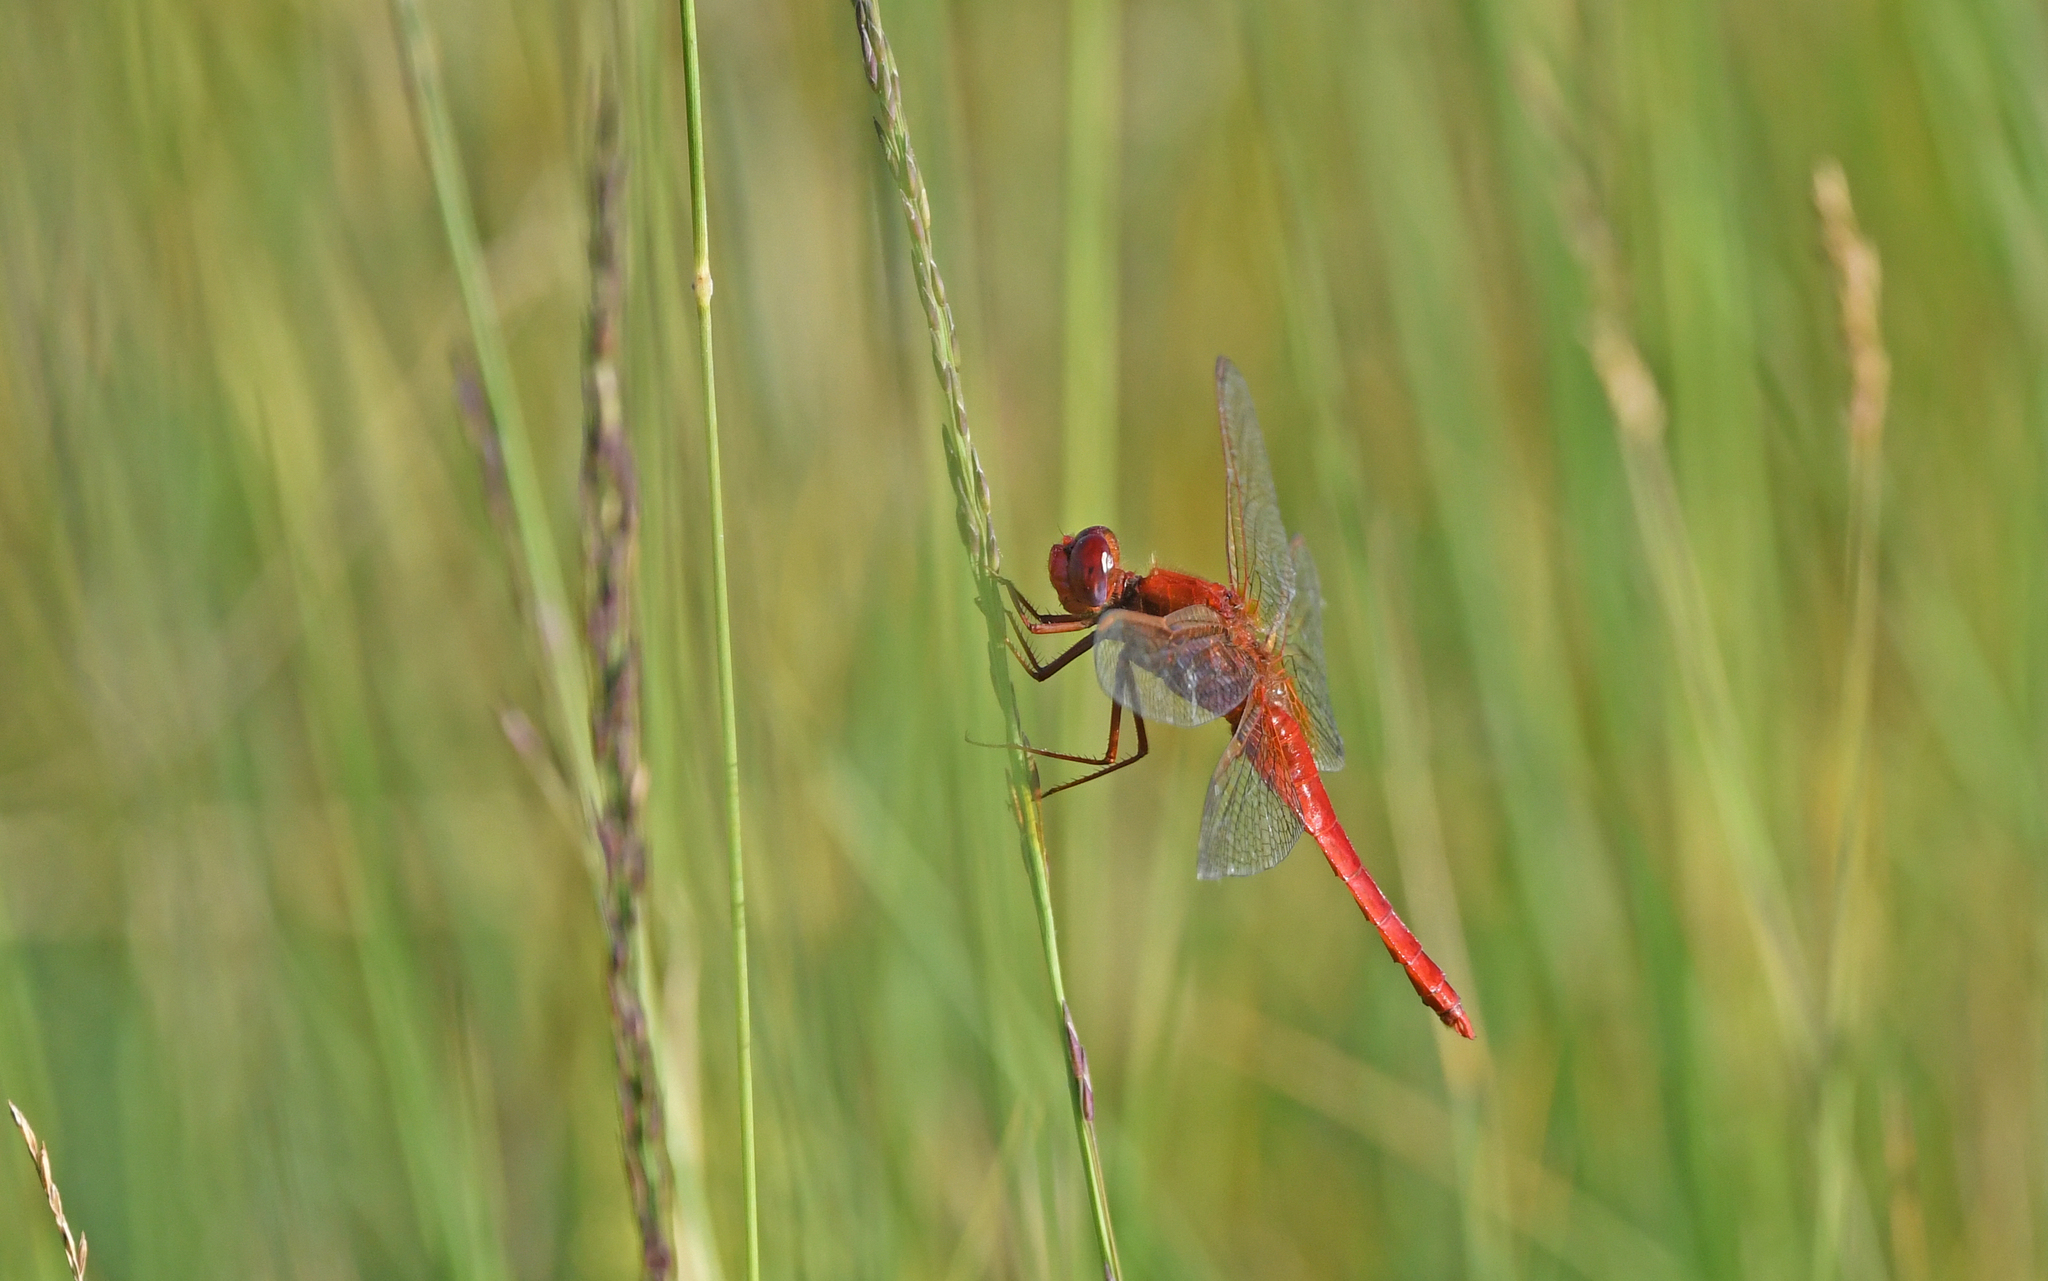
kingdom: Animalia
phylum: Arthropoda
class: Insecta
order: Odonata
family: Libellulidae
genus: Crocothemis
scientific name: Crocothemis erythraea
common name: Scarlet dragonfly
